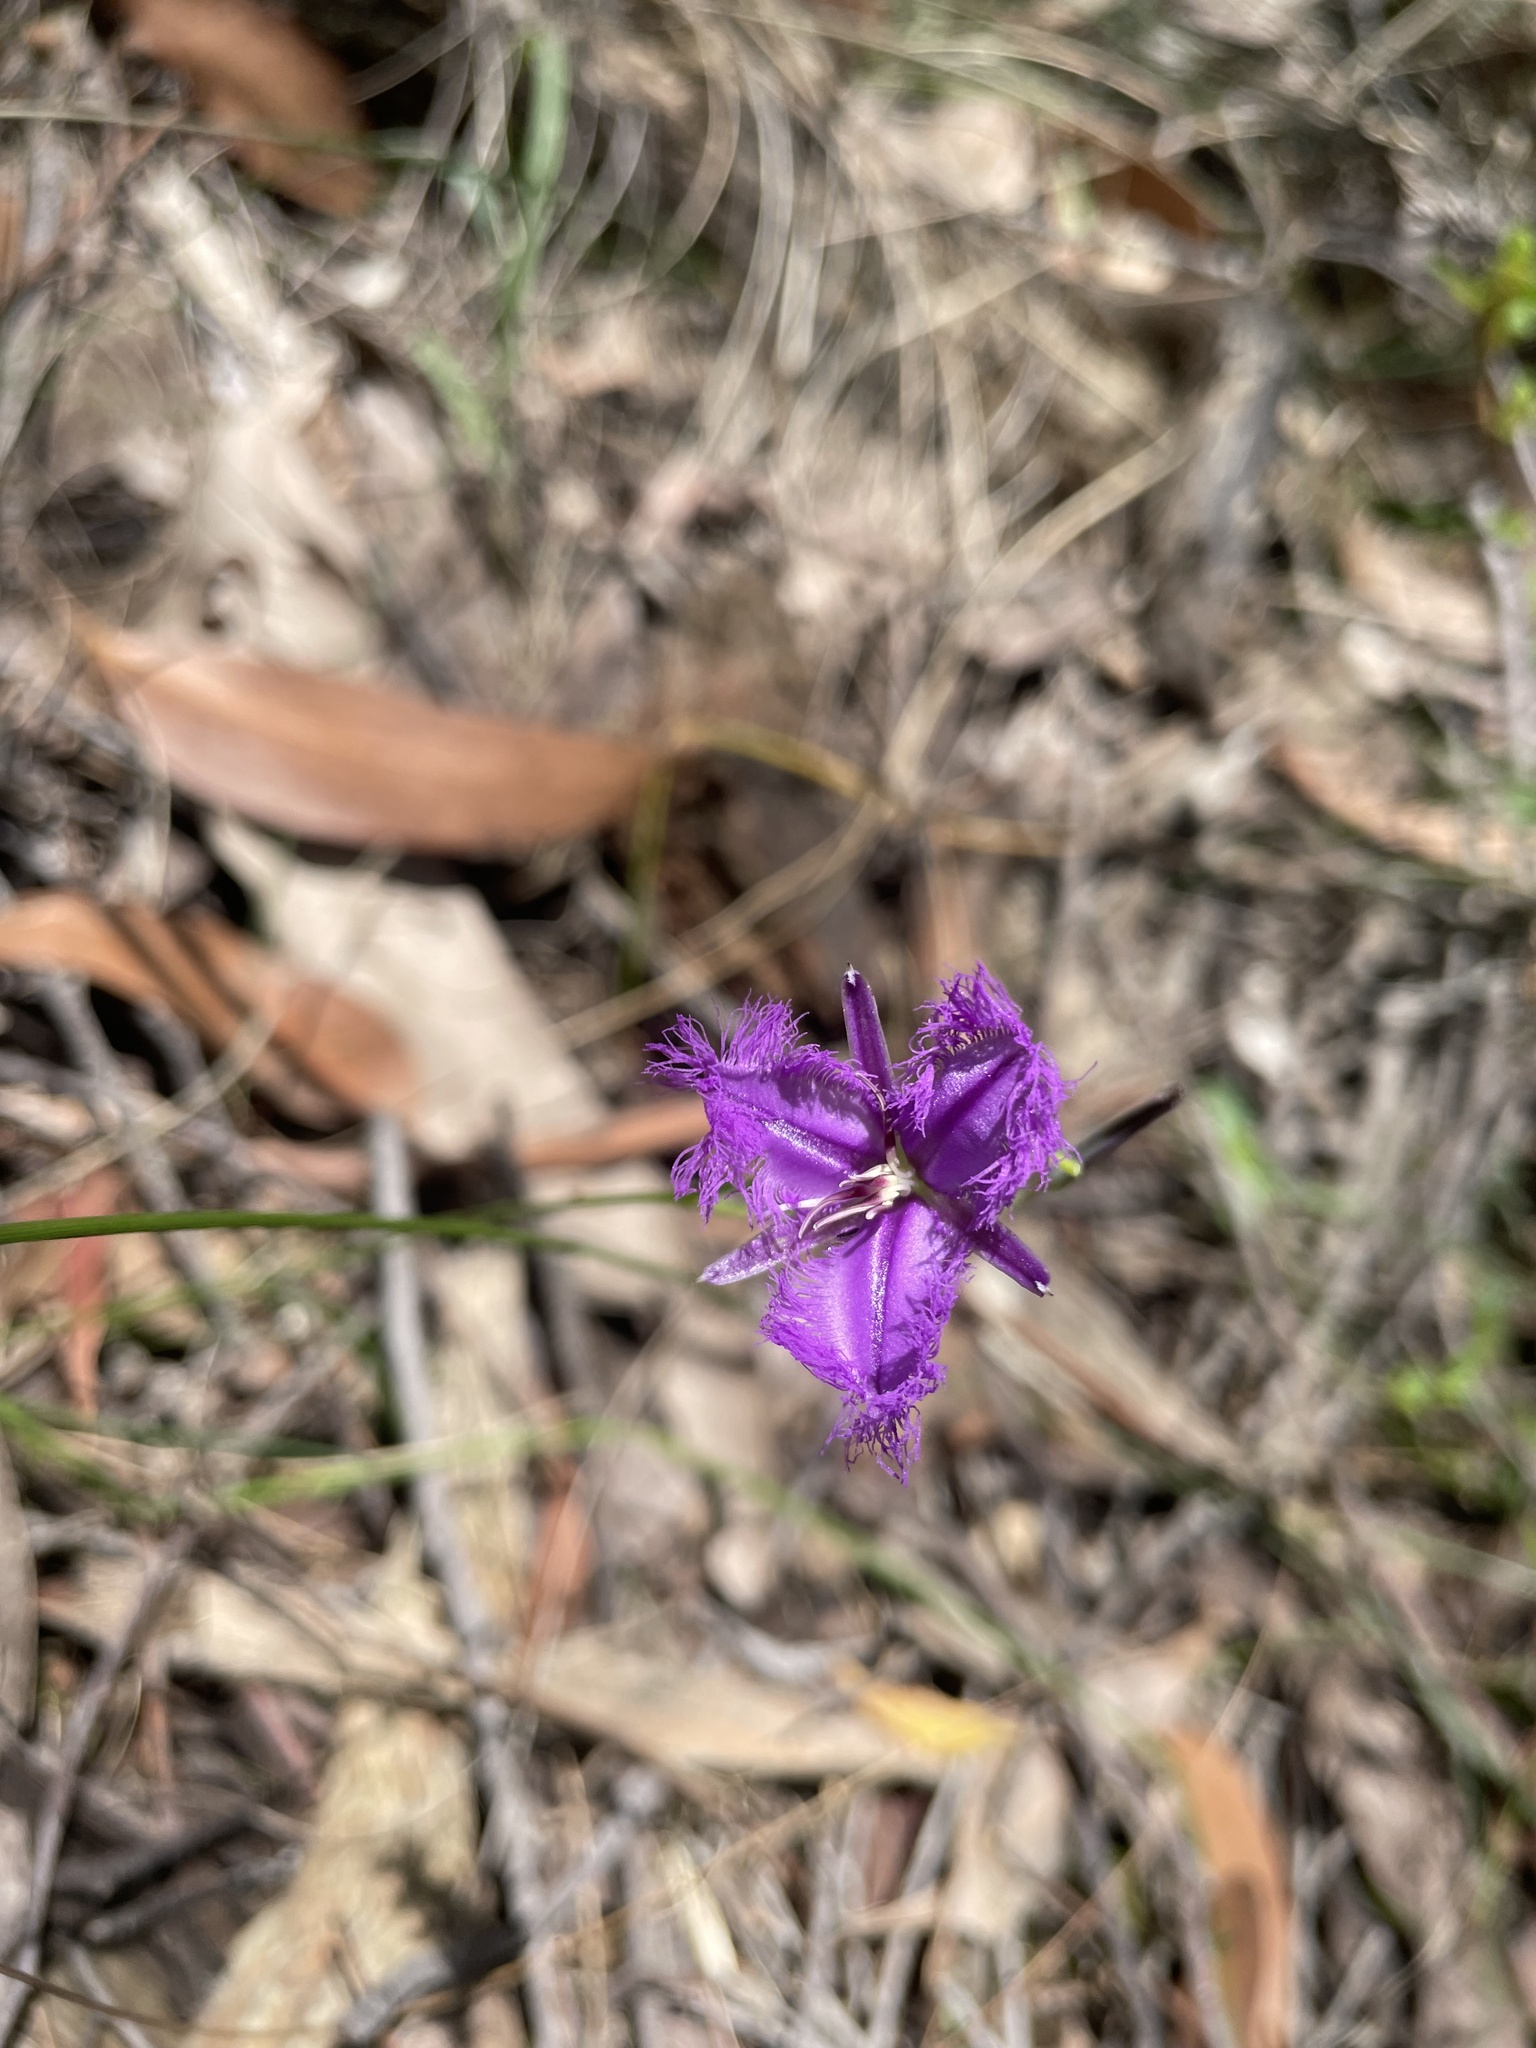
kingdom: Plantae
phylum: Tracheophyta
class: Liliopsida
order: Asparagales
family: Asparagaceae
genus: Thysanotus
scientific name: Thysanotus tuberosus
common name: Common fringed-lily
